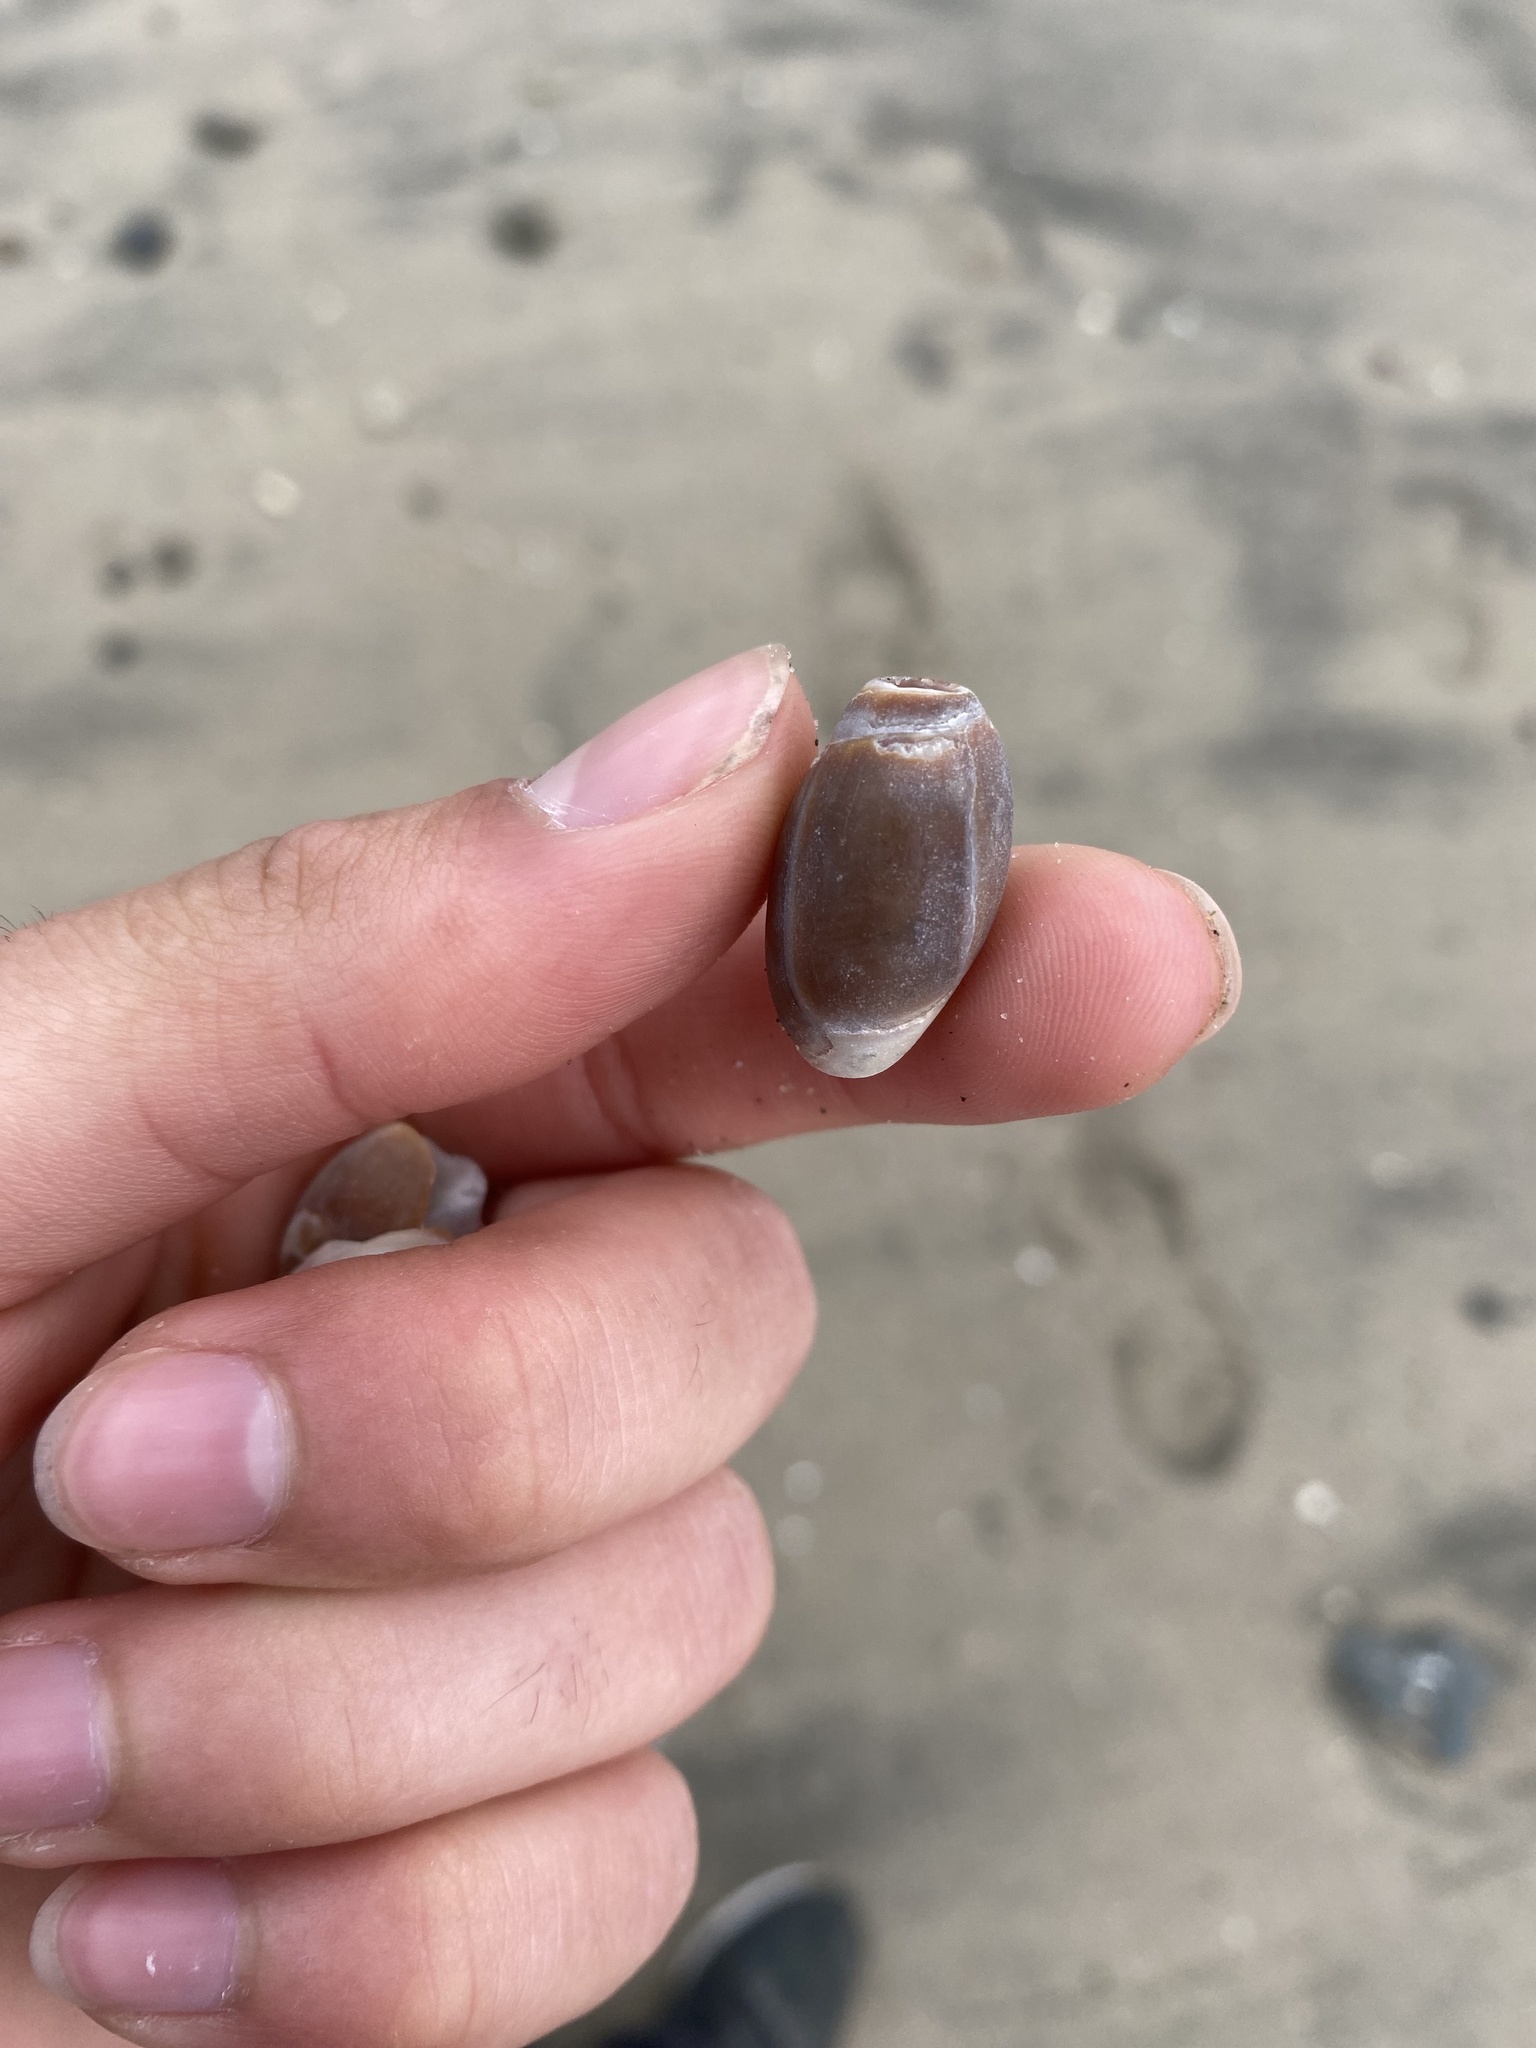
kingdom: Animalia
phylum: Mollusca
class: Gastropoda
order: Neogastropoda
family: Olividae
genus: Callianax
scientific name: Callianax biplicata
